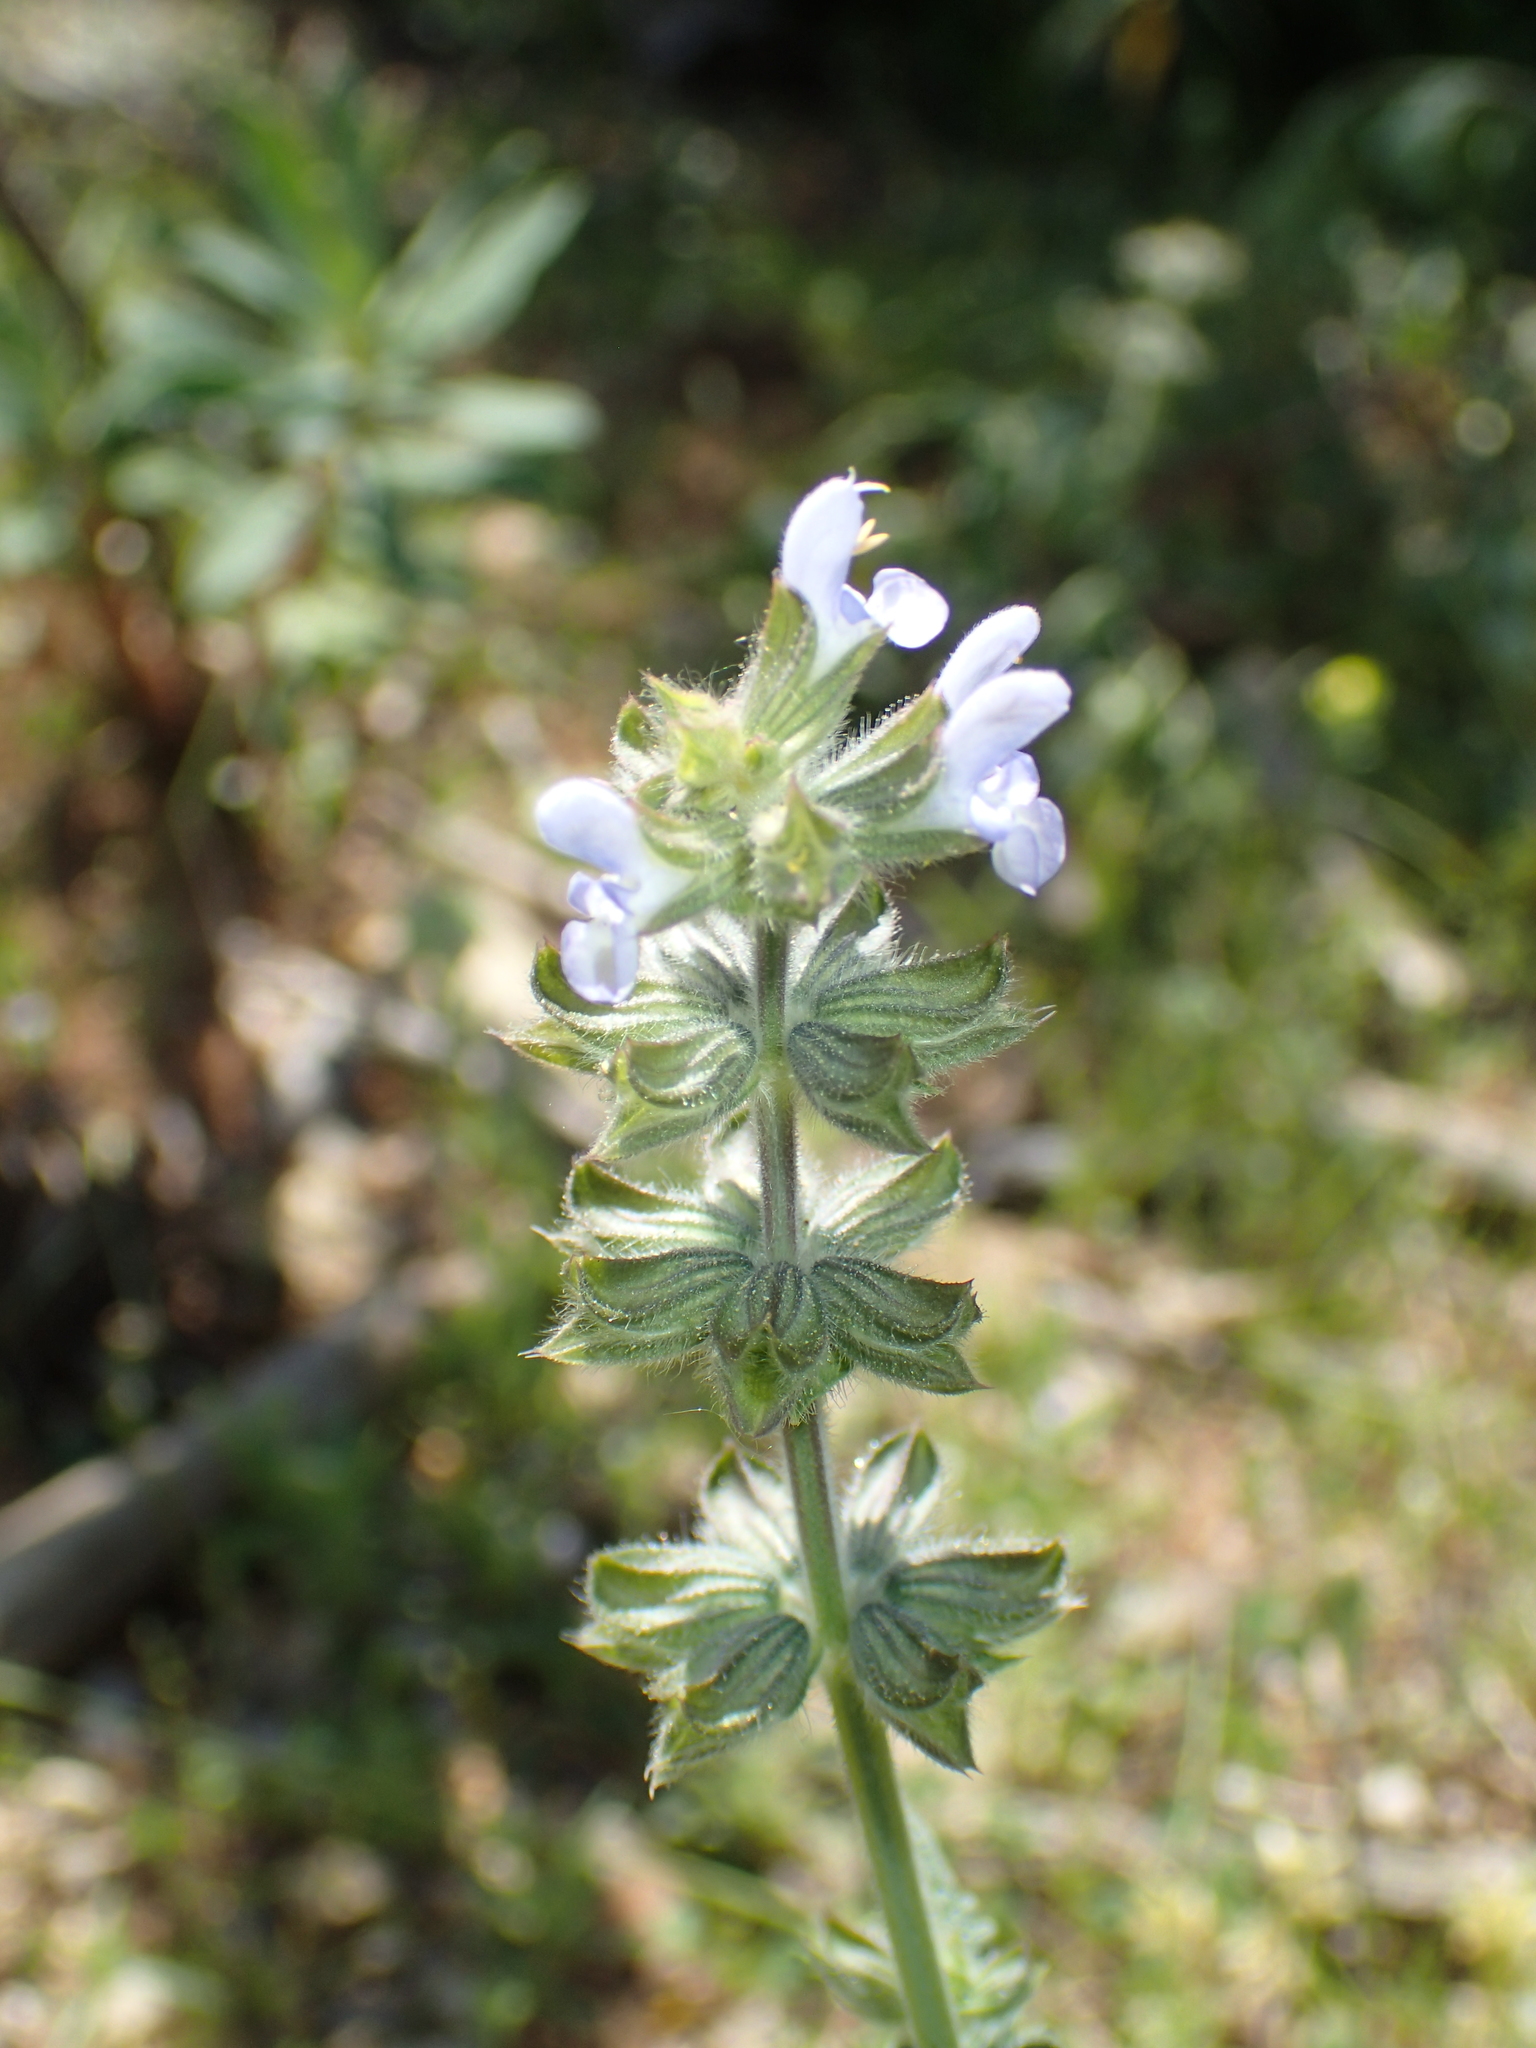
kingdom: Plantae
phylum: Tracheophyta
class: Magnoliopsida
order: Lamiales
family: Lamiaceae
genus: Salvia
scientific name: Salvia verbenaca
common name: Wild clary
